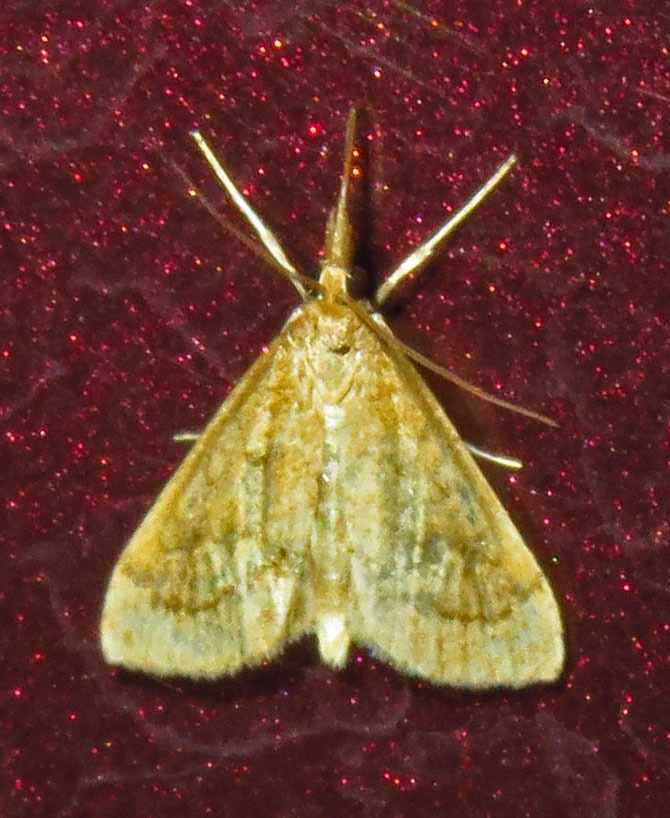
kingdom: Animalia
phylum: Arthropoda
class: Insecta
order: Lepidoptera
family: Crambidae
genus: Udea
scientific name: Udea rubigalis
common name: Celery leaftier moth
